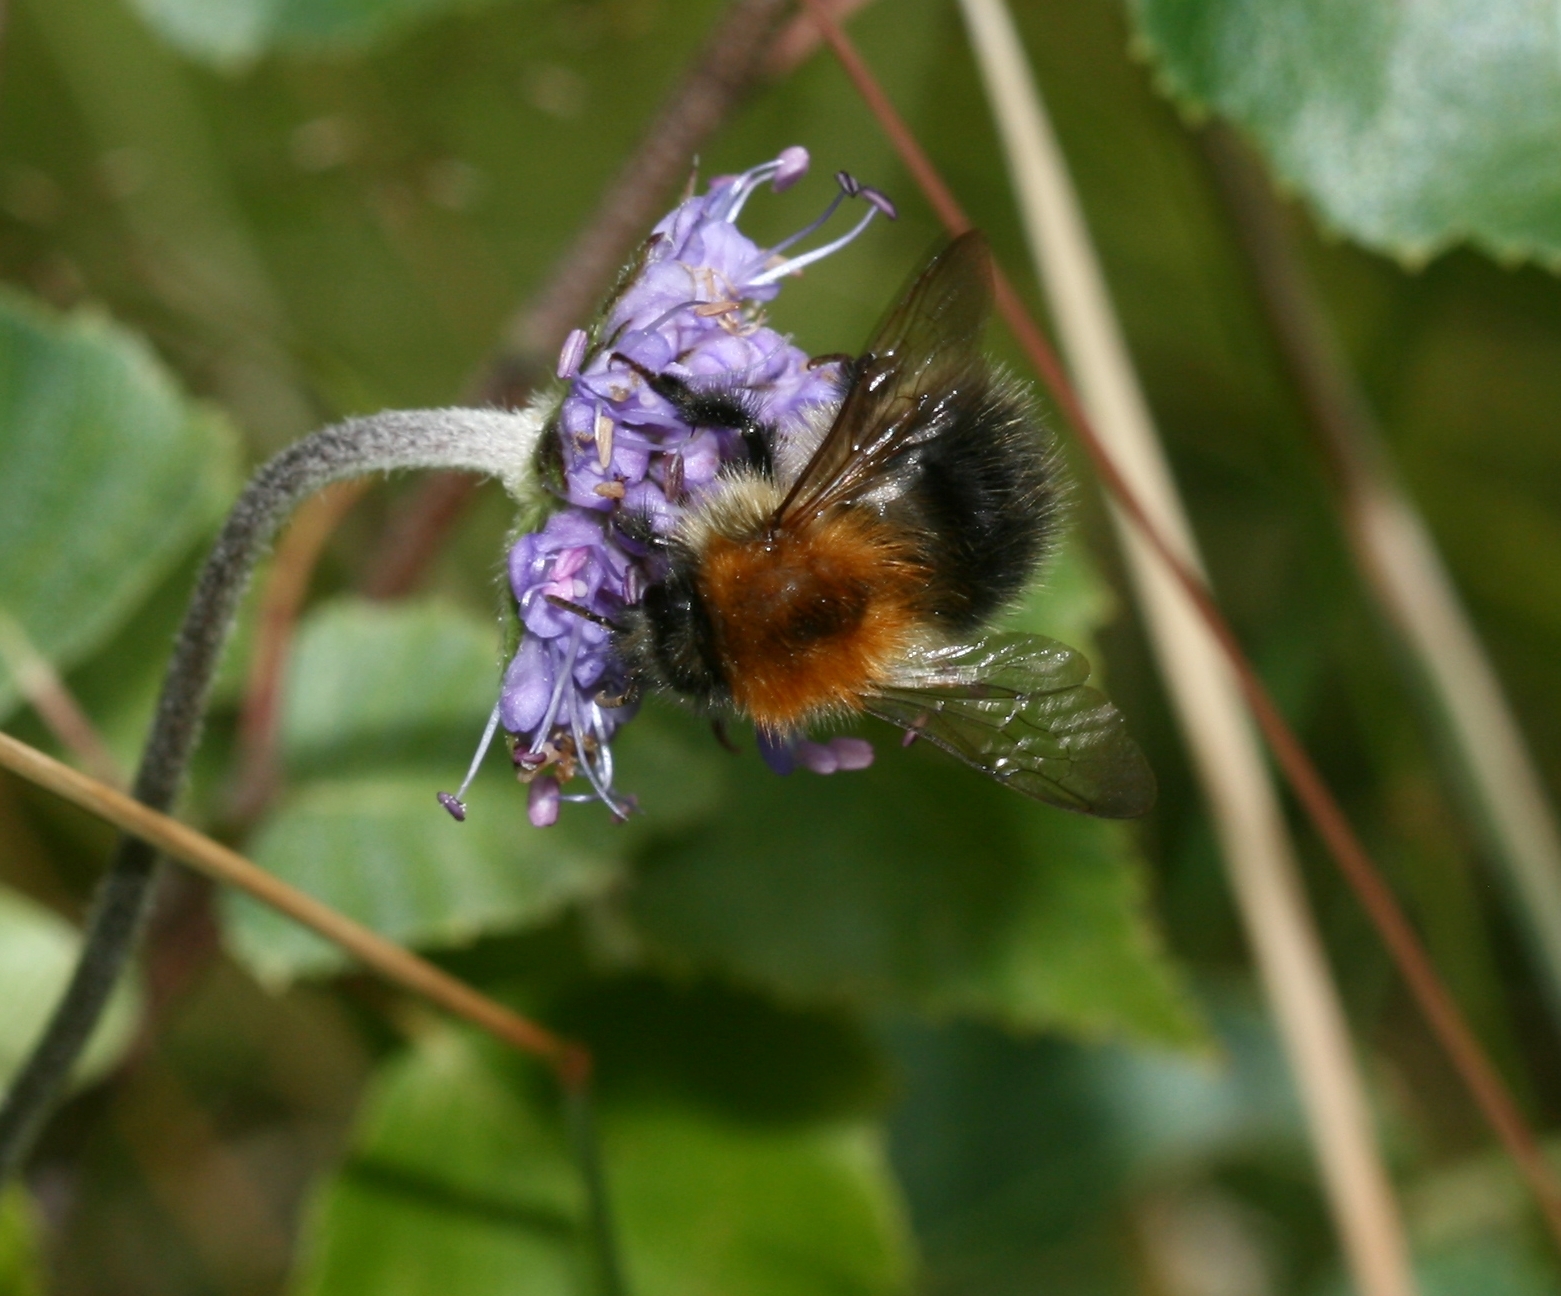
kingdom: Animalia
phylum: Arthropoda
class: Insecta
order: Hymenoptera
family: Apidae
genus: Bombus
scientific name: Bombus hypnorum
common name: New garden bumblebee
